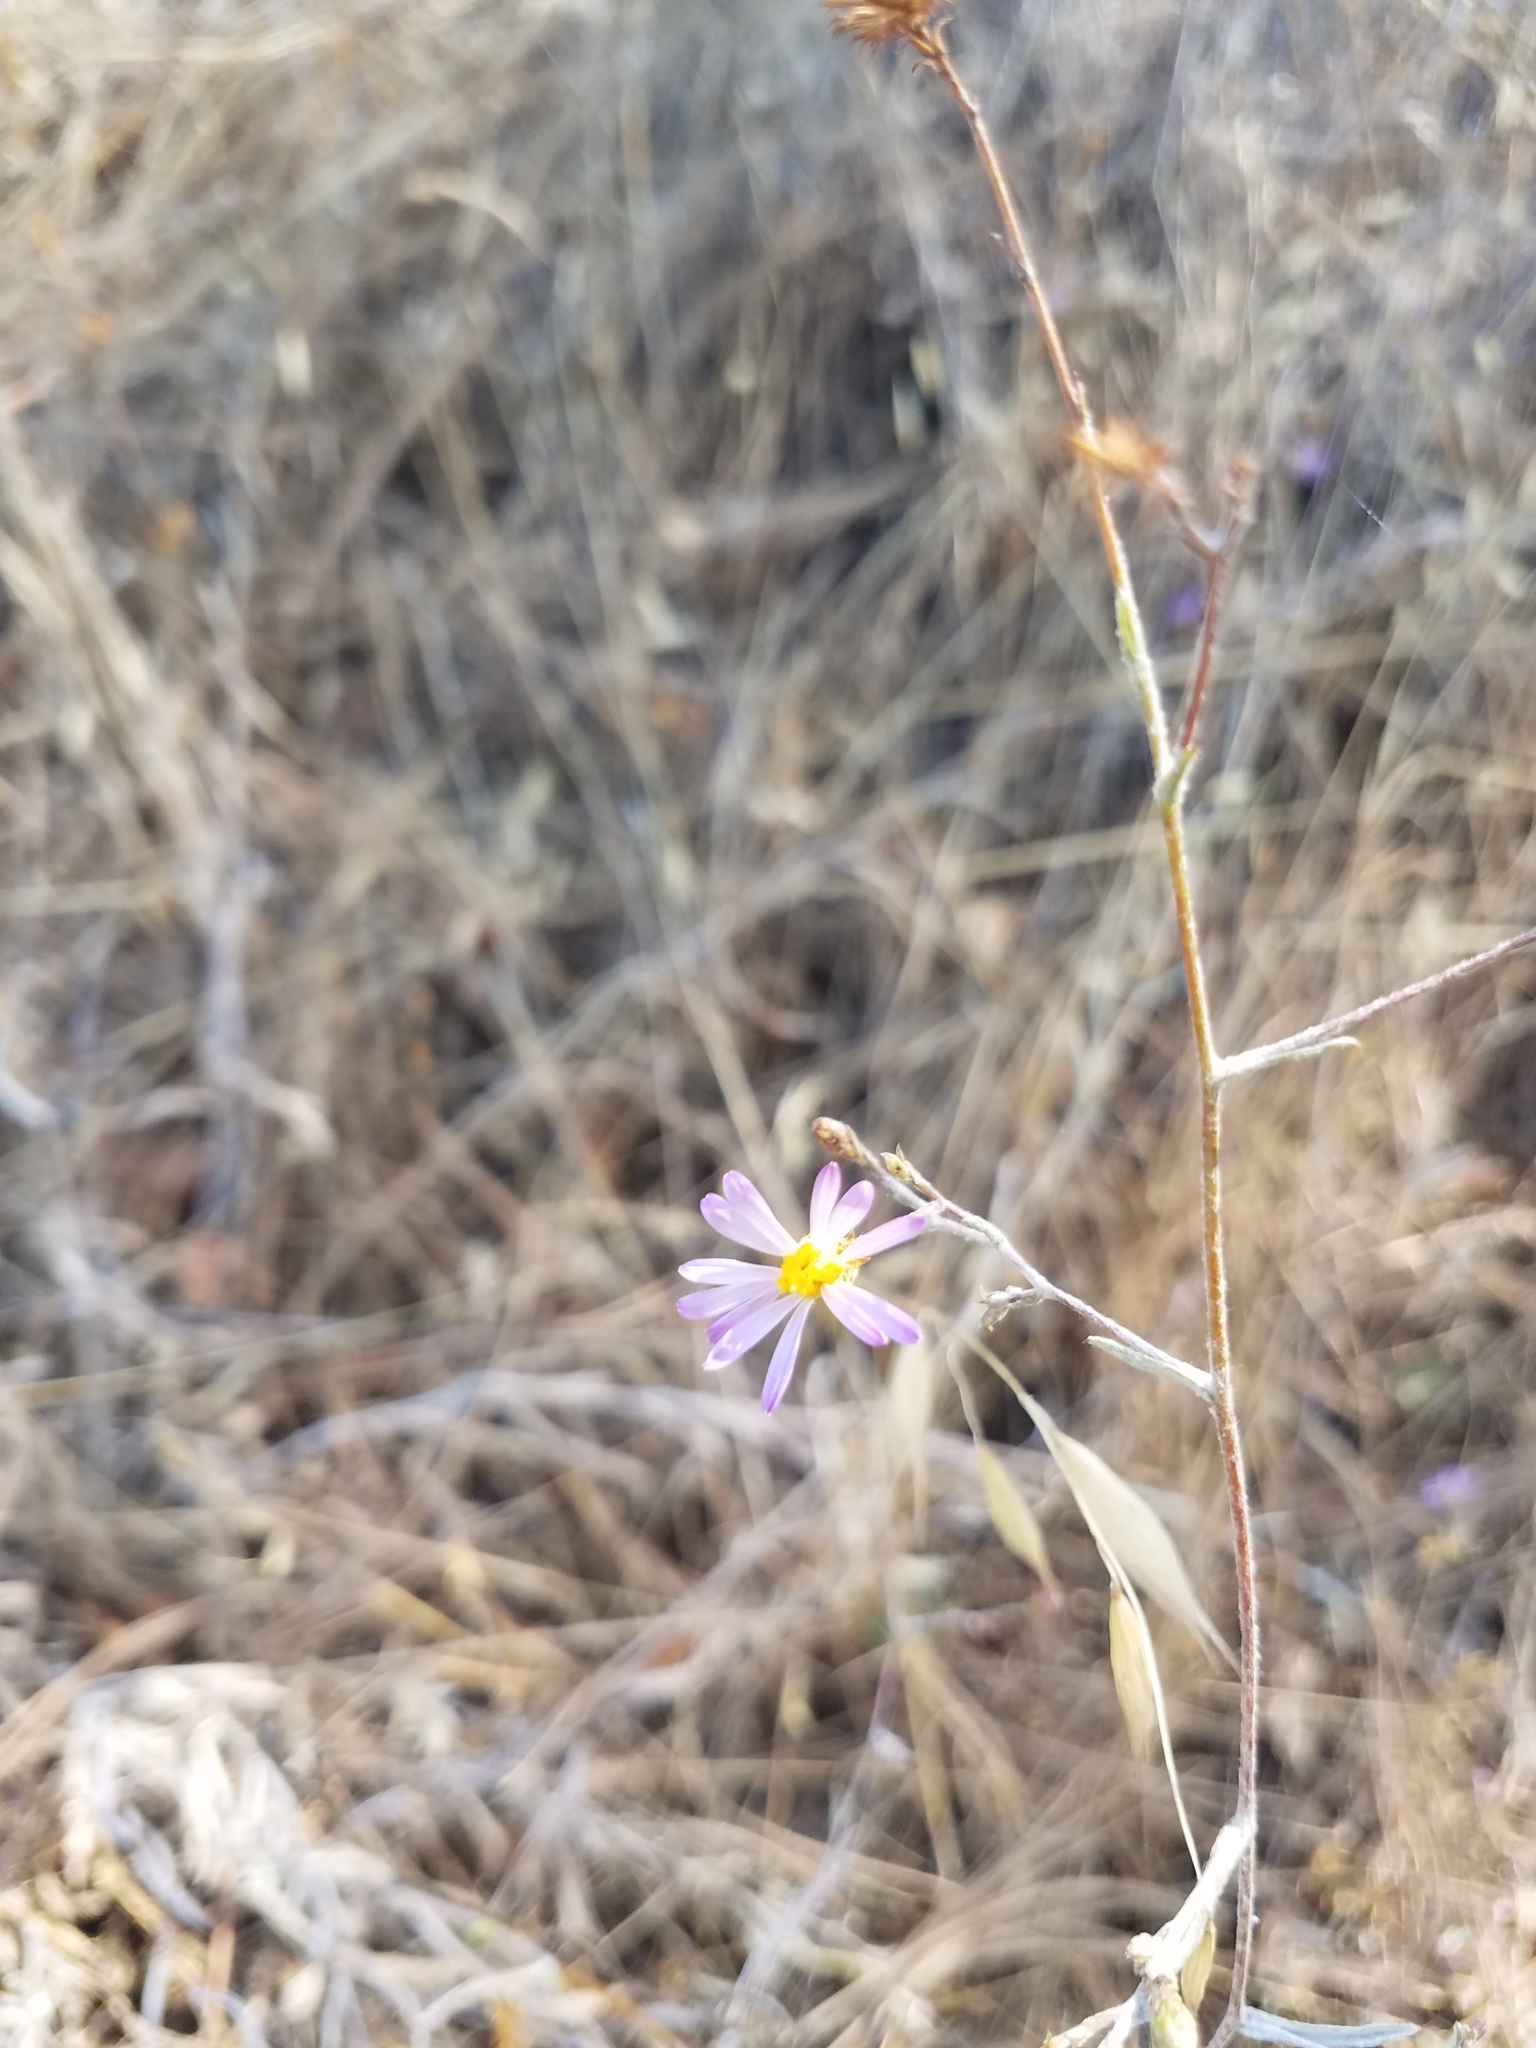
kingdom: Plantae
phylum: Tracheophyta
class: Magnoliopsida
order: Asterales
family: Asteraceae
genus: Corethrogyne
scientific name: Corethrogyne filaginifolia
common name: Sand-aster
